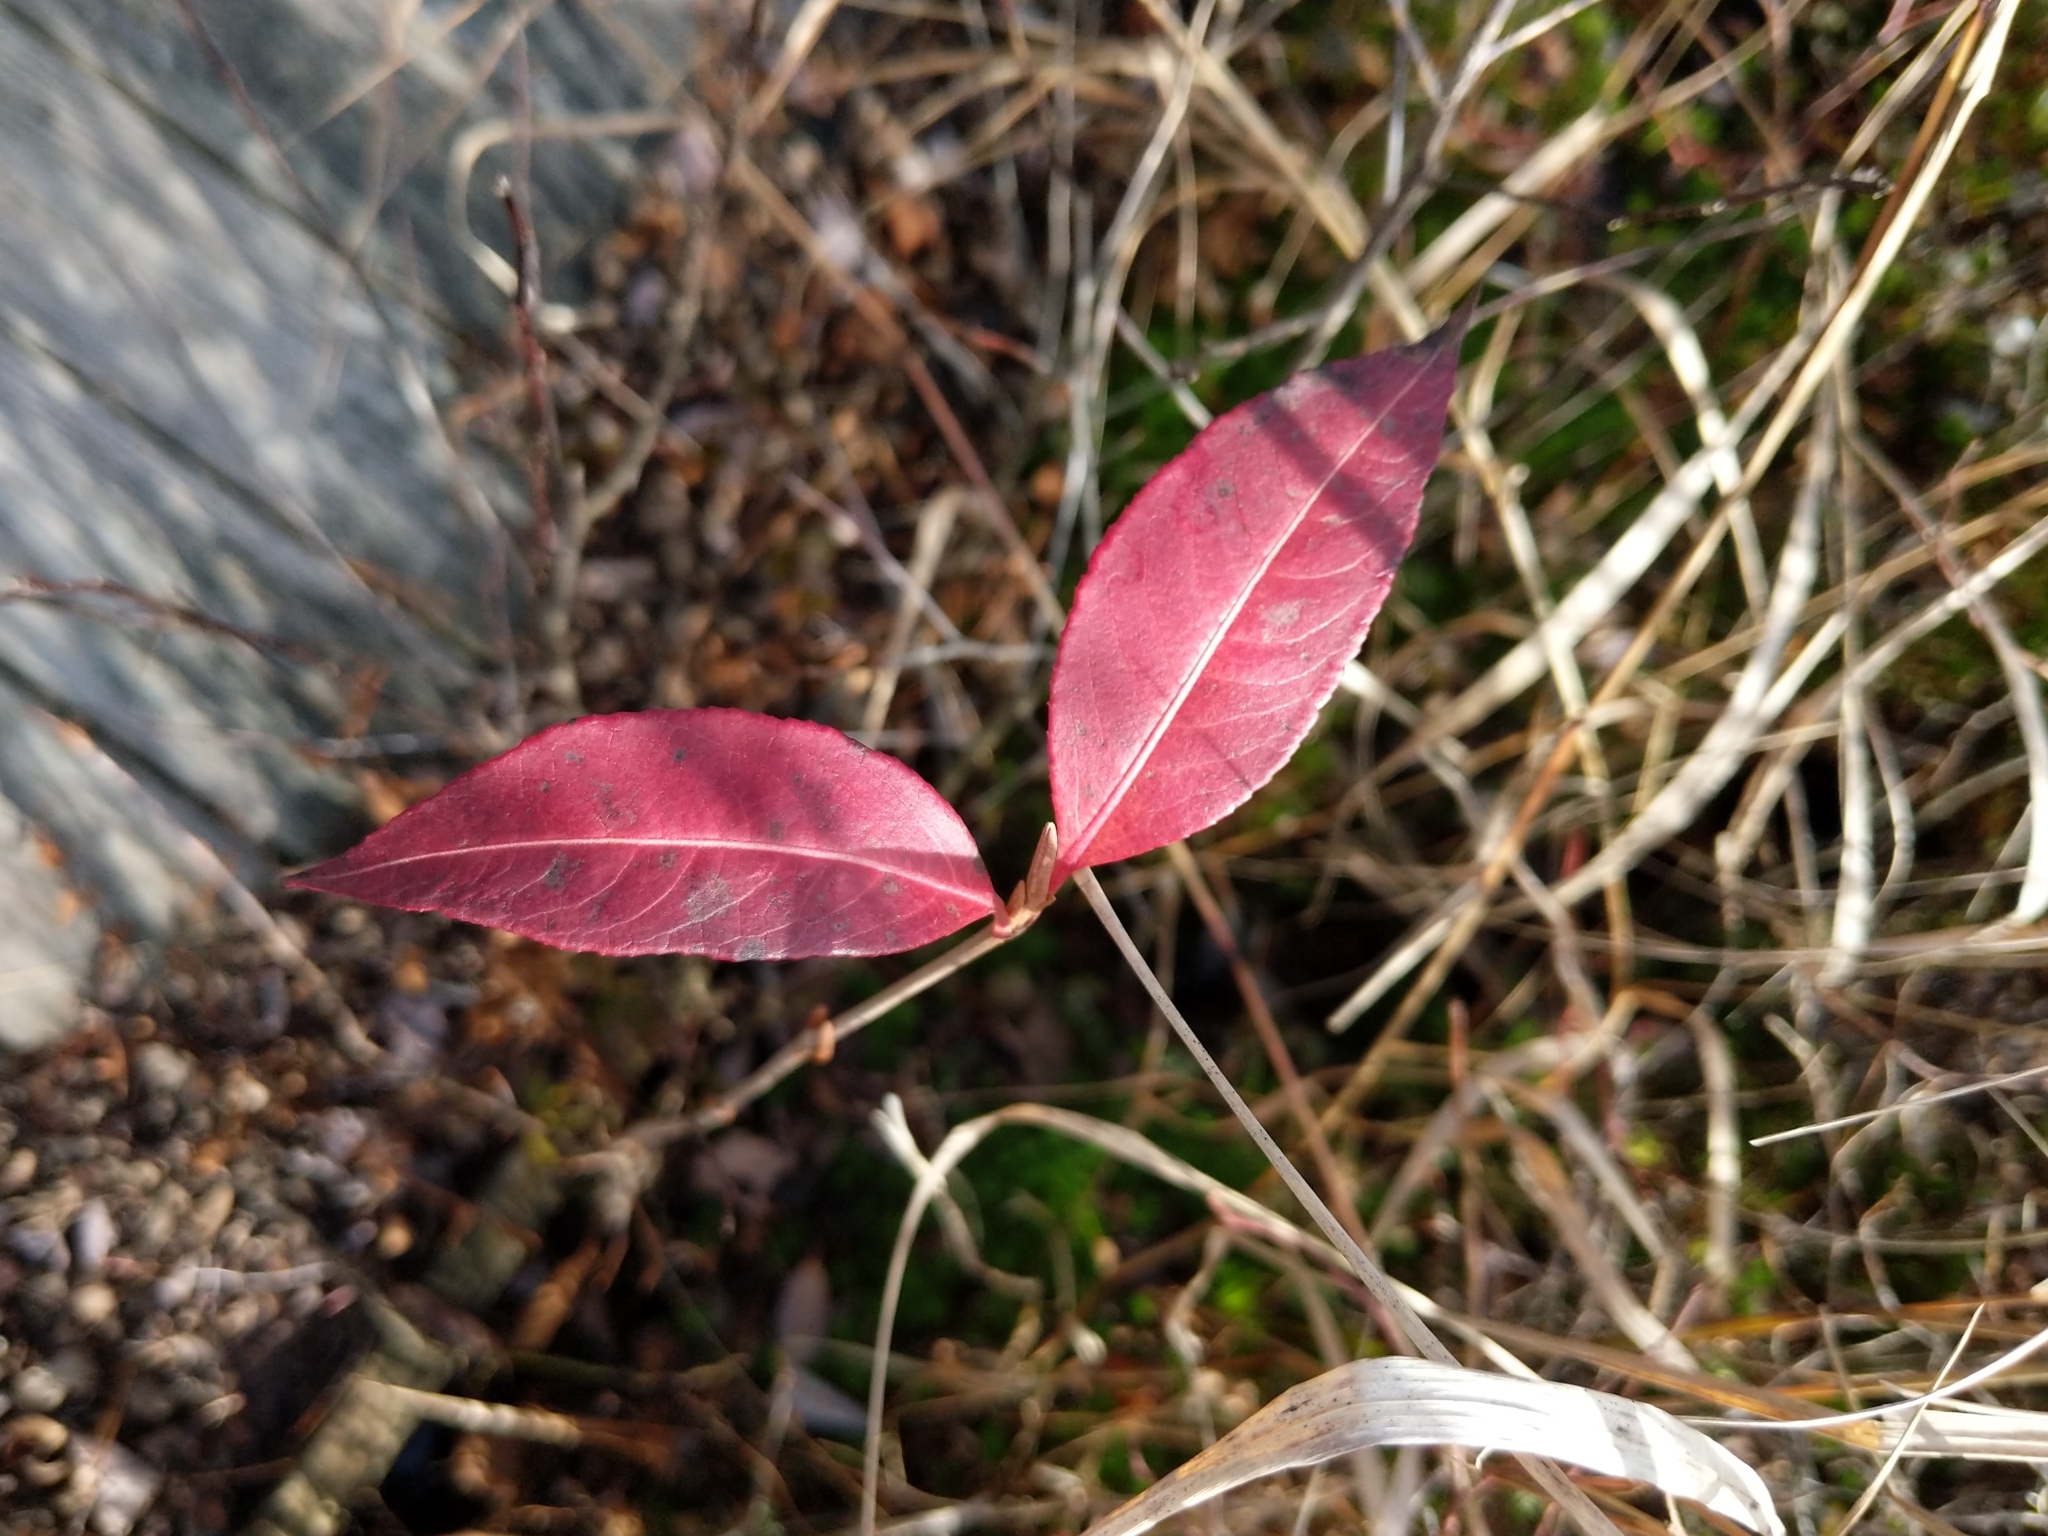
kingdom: Plantae
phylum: Tracheophyta
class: Magnoliopsida
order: Dipsacales
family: Viburnaceae
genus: Viburnum
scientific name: Viburnum cassinoides
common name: Swamp haw
